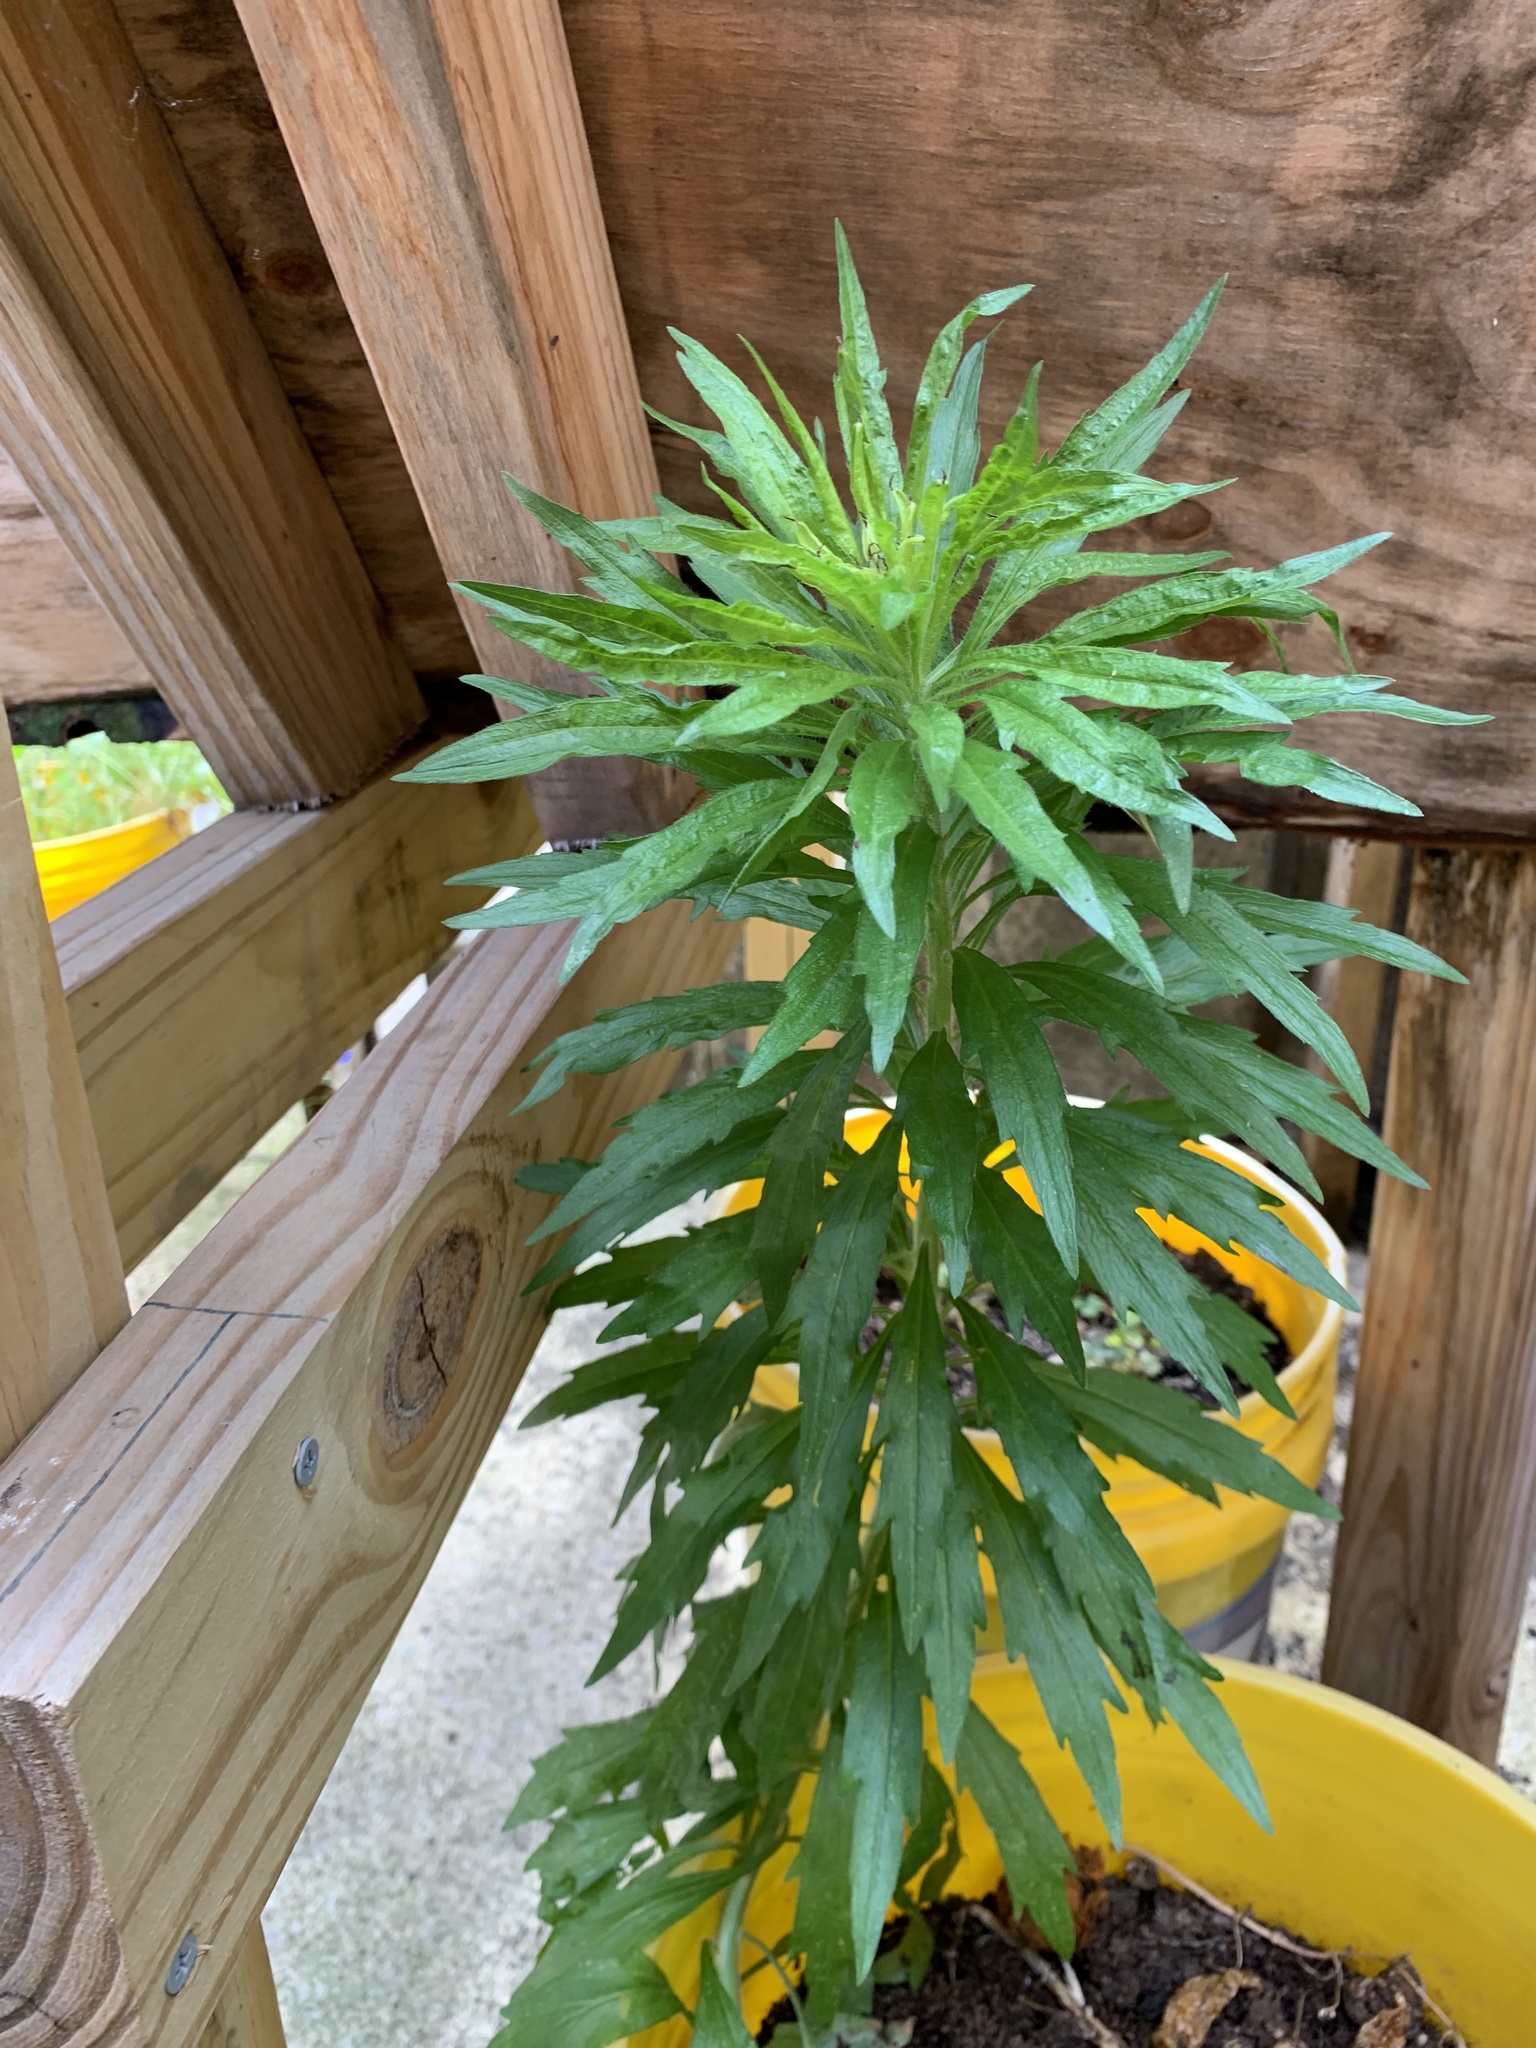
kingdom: Plantae
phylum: Tracheophyta
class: Magnoliopsida
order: Asterales
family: Asteraceae
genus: Erigeron
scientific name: Erigeron canadensis
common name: Canadian fleabane
